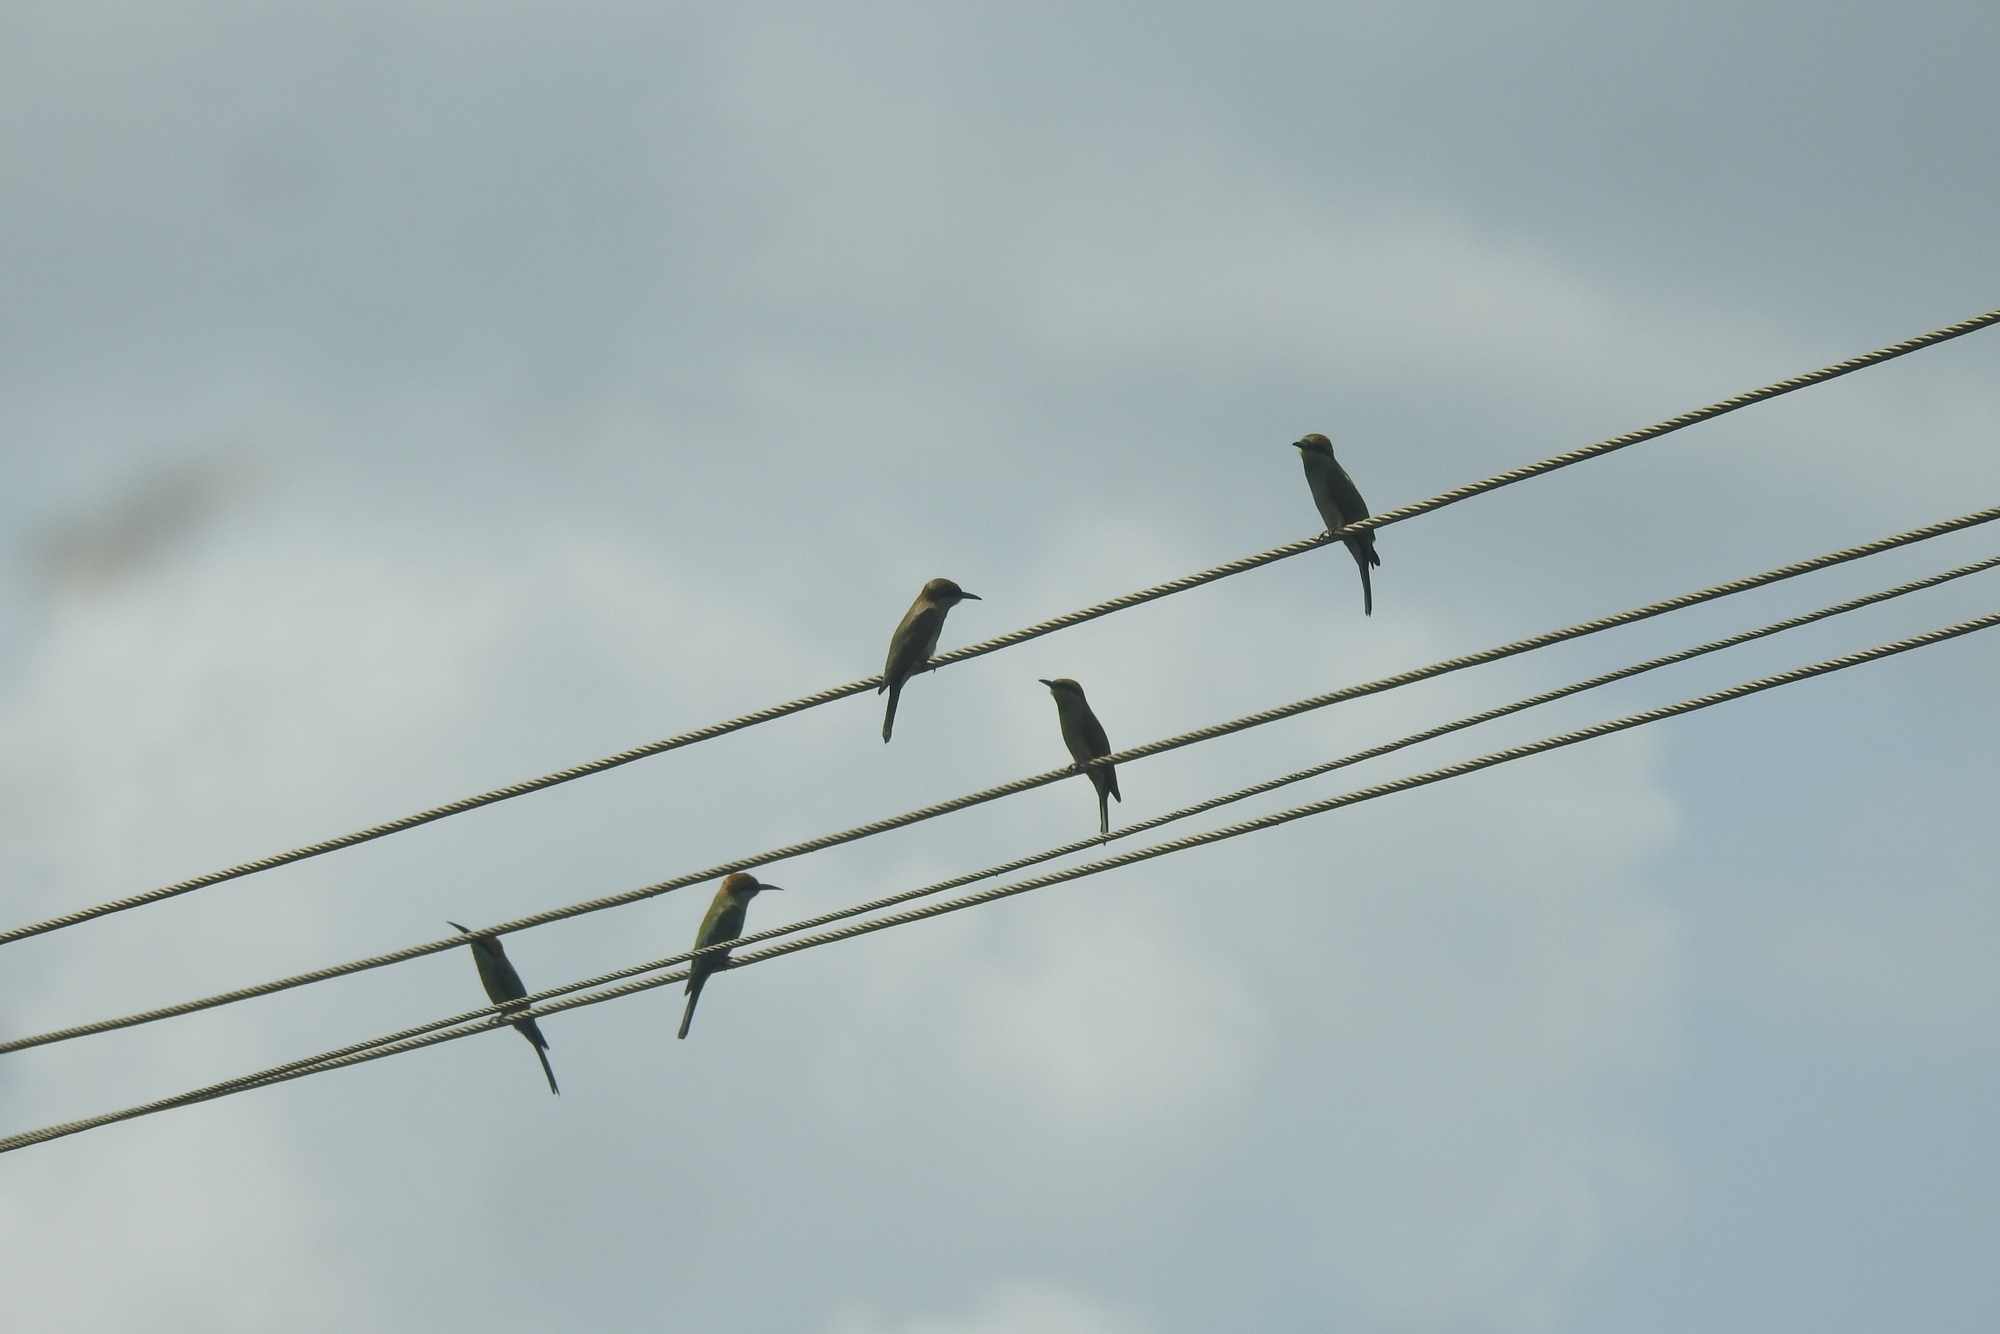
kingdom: Animalia
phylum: Chordata
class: Aves
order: Coraciiformes
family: Meropidae
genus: Merops
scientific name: Merops orientalis
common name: Green bee-eater
